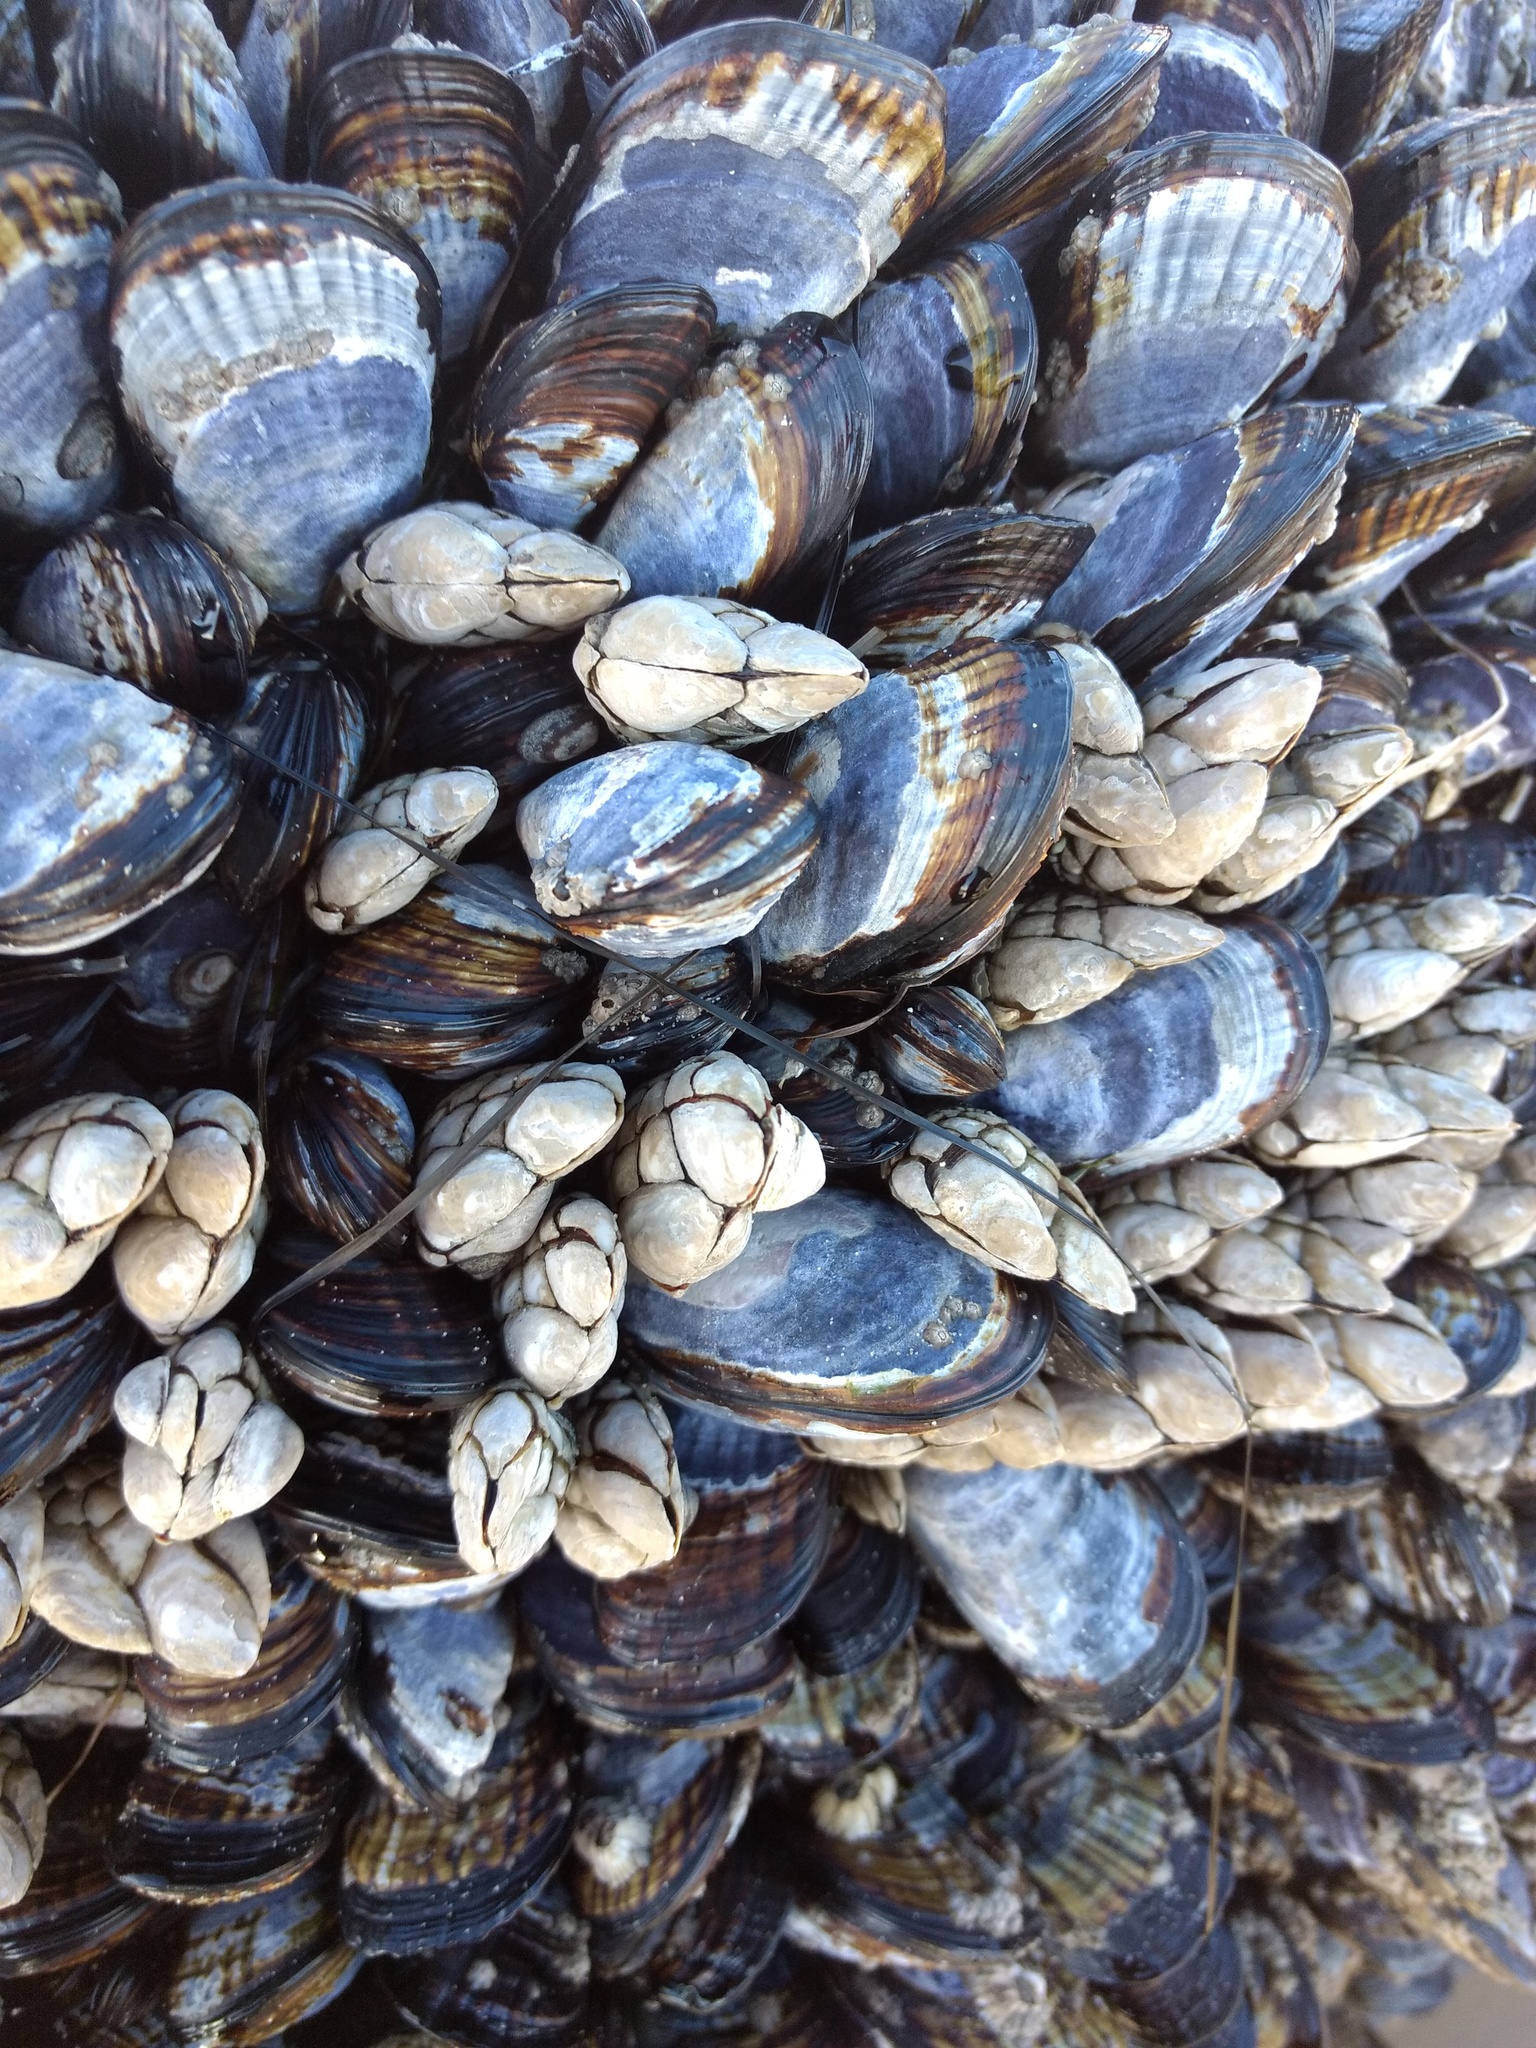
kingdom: Animalia
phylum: Arthropoda
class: Maxillopoda
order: Pedunculata
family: Pollicipedidae
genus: Pollicipes
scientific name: Pollicipes polymerus
